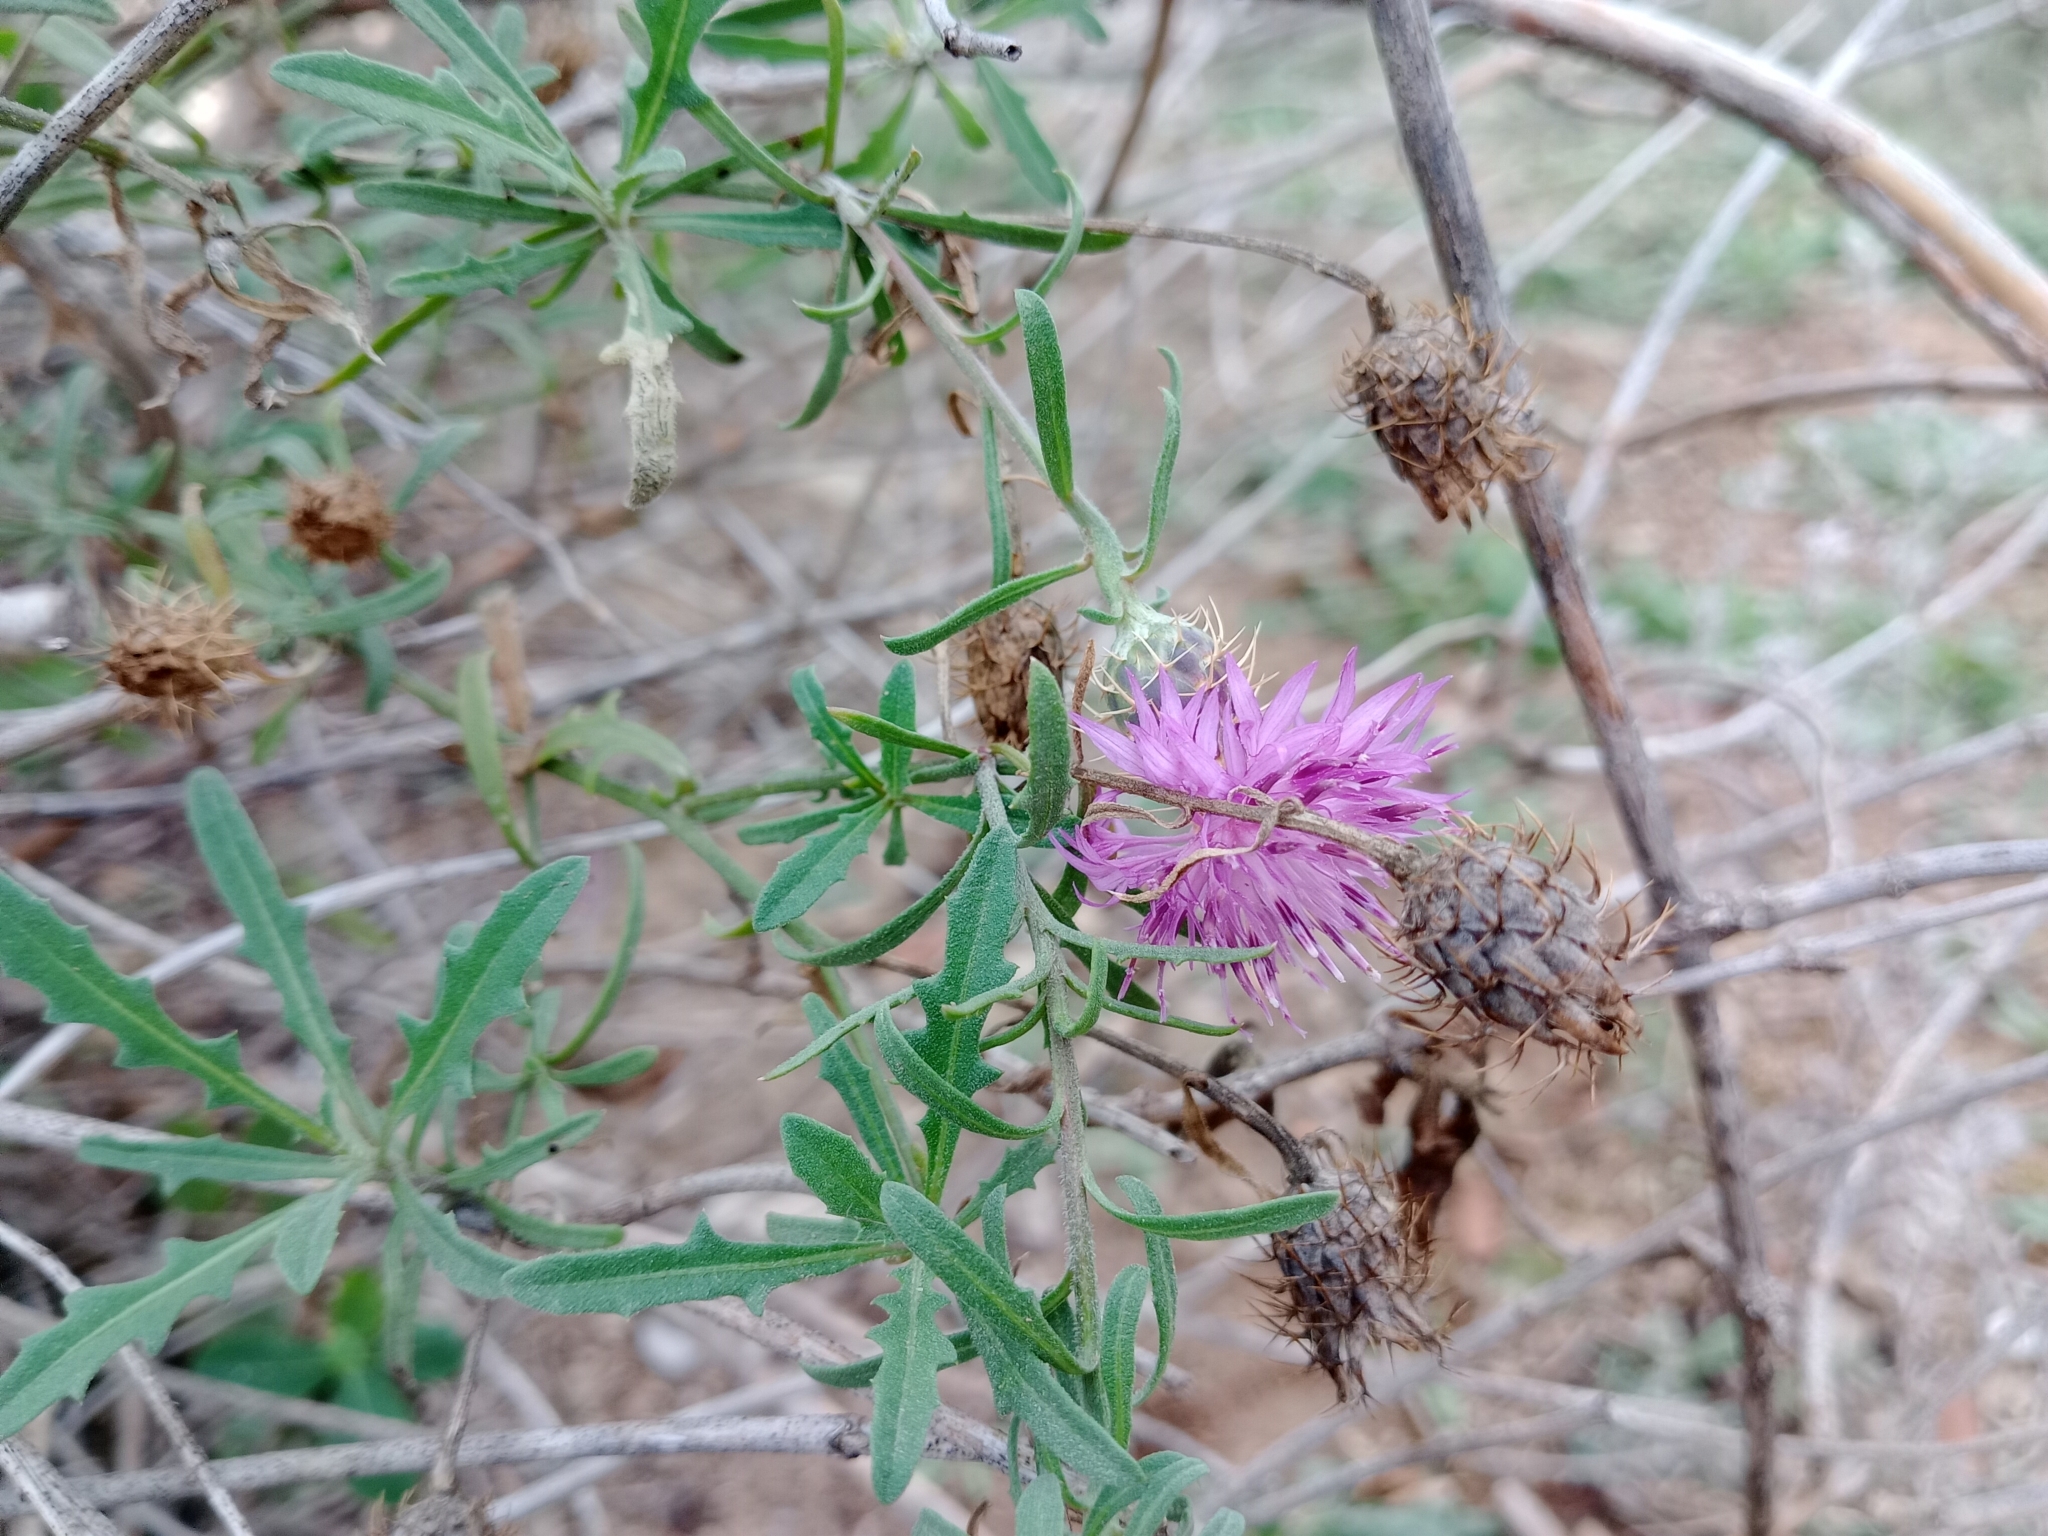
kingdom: Plantae
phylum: Tracheophyta
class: Magnoliopsida
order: Asterales
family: Asteraceae
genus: Centaurea
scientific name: Centaurea aspera
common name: Rough star-thistle
